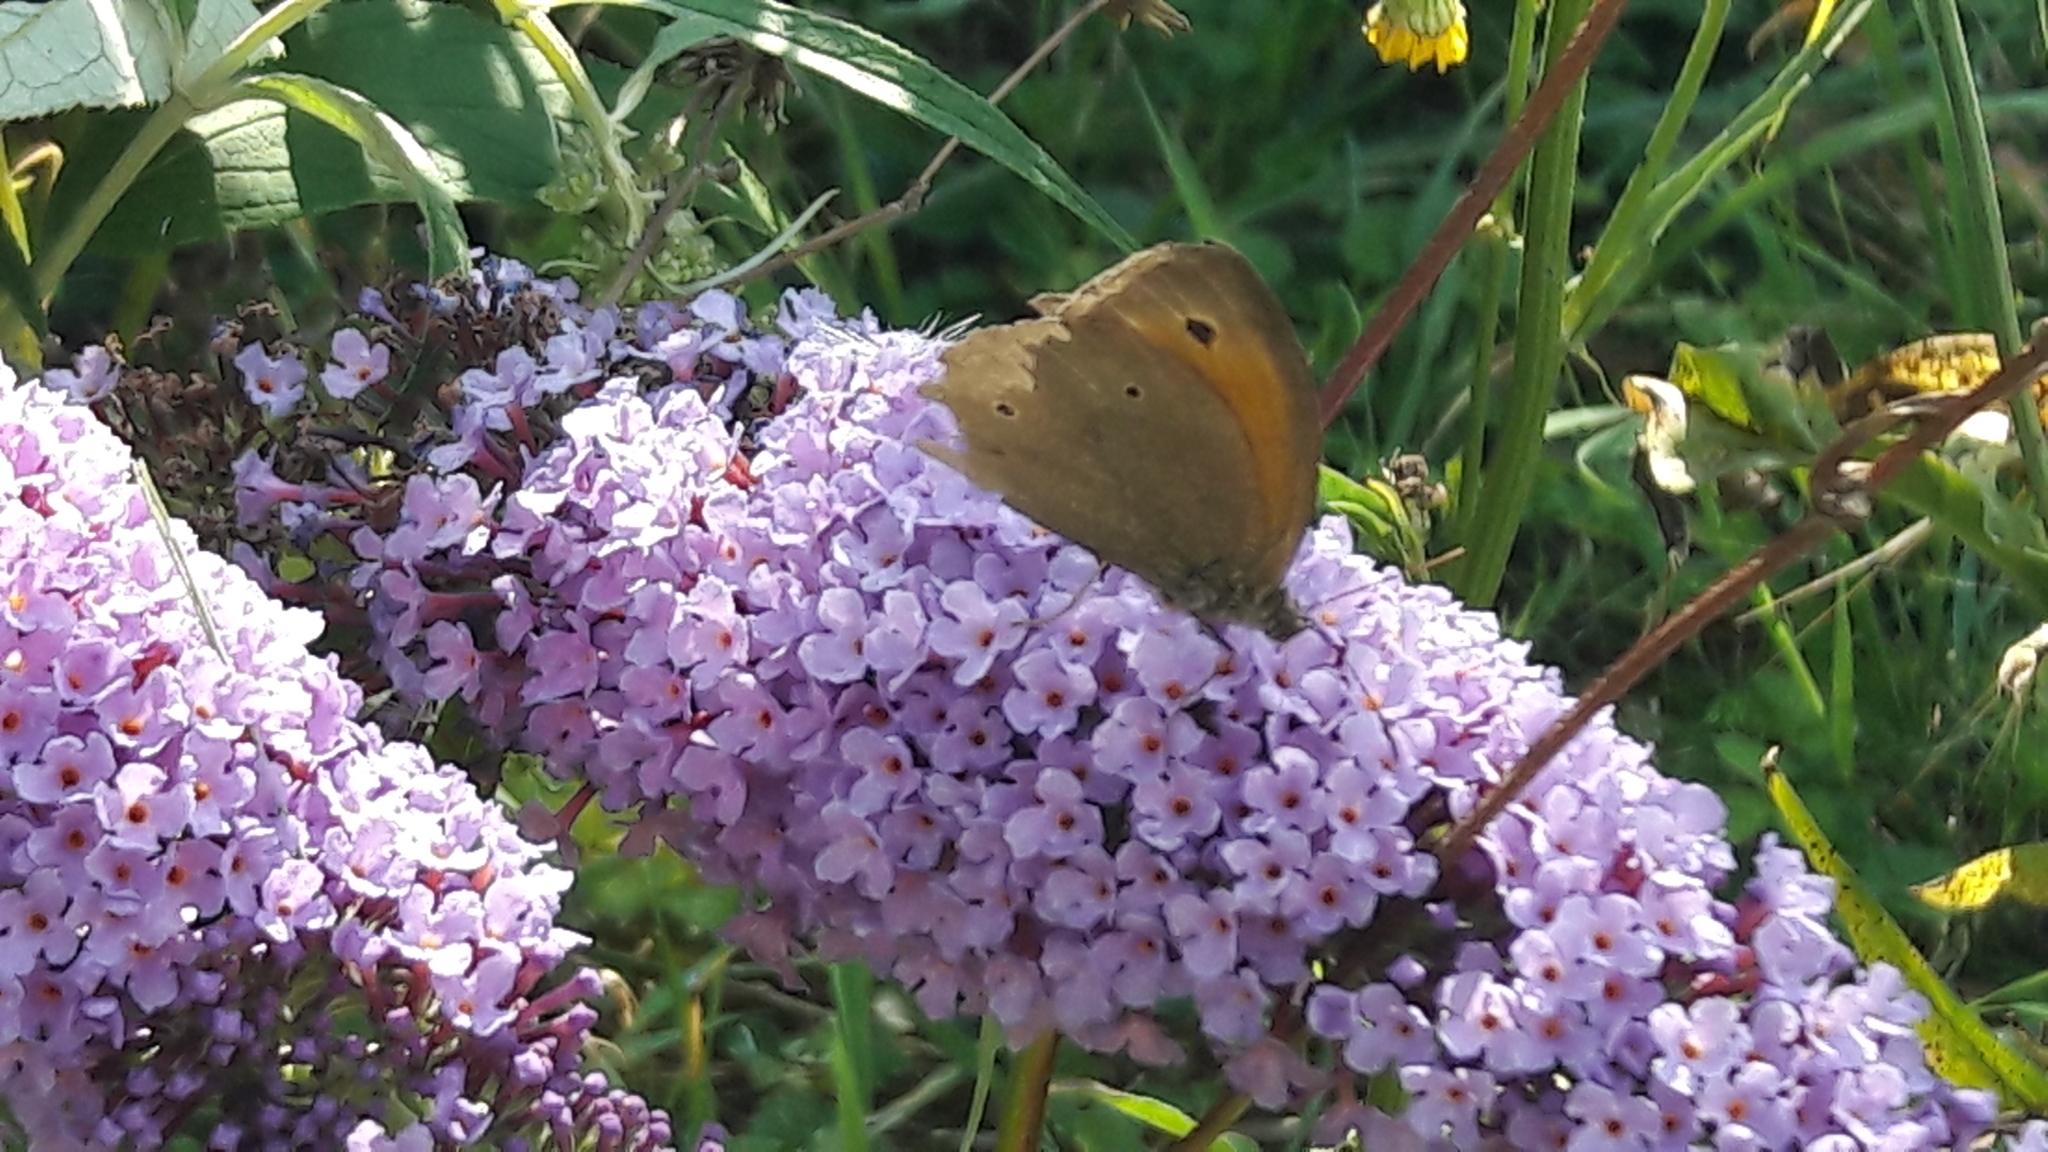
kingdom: Animalia
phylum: Arthropoda
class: Insecta
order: Lepidoptera
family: Nymphalidae
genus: Maniola
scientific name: Maniola jurtina
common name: Meadow brown
